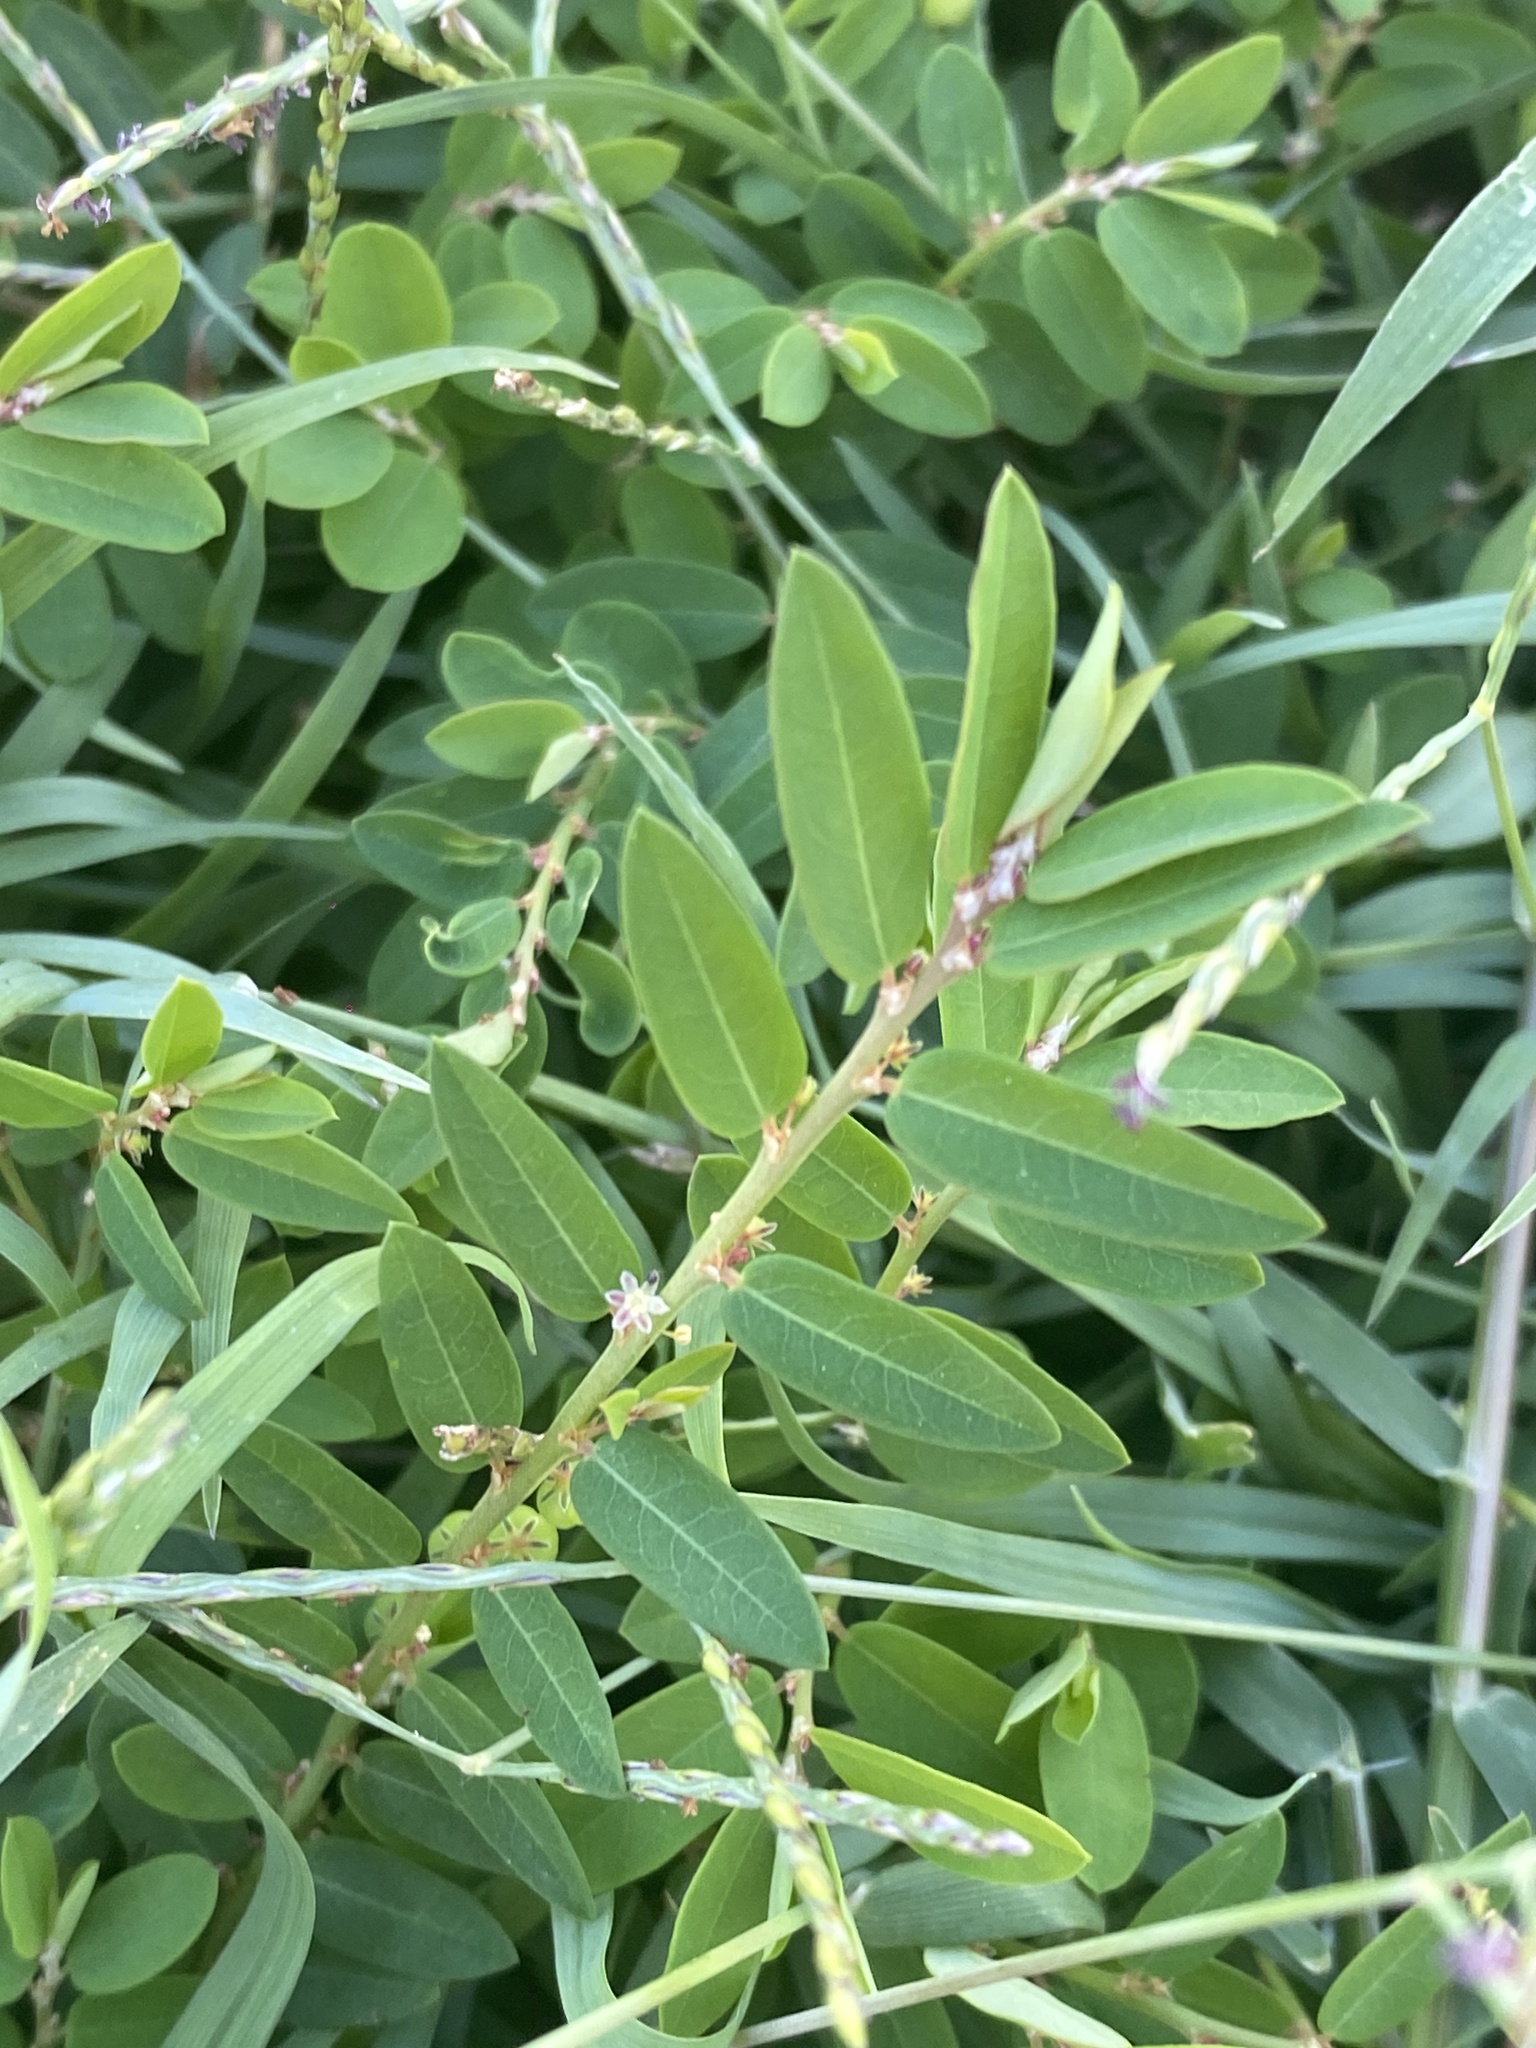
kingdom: Plantae
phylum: Tracheophyta
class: Magnoliopsida
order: Malpighiales
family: Phyllanthaceae
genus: Phyllanthus
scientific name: Phyllanthus virgatus
